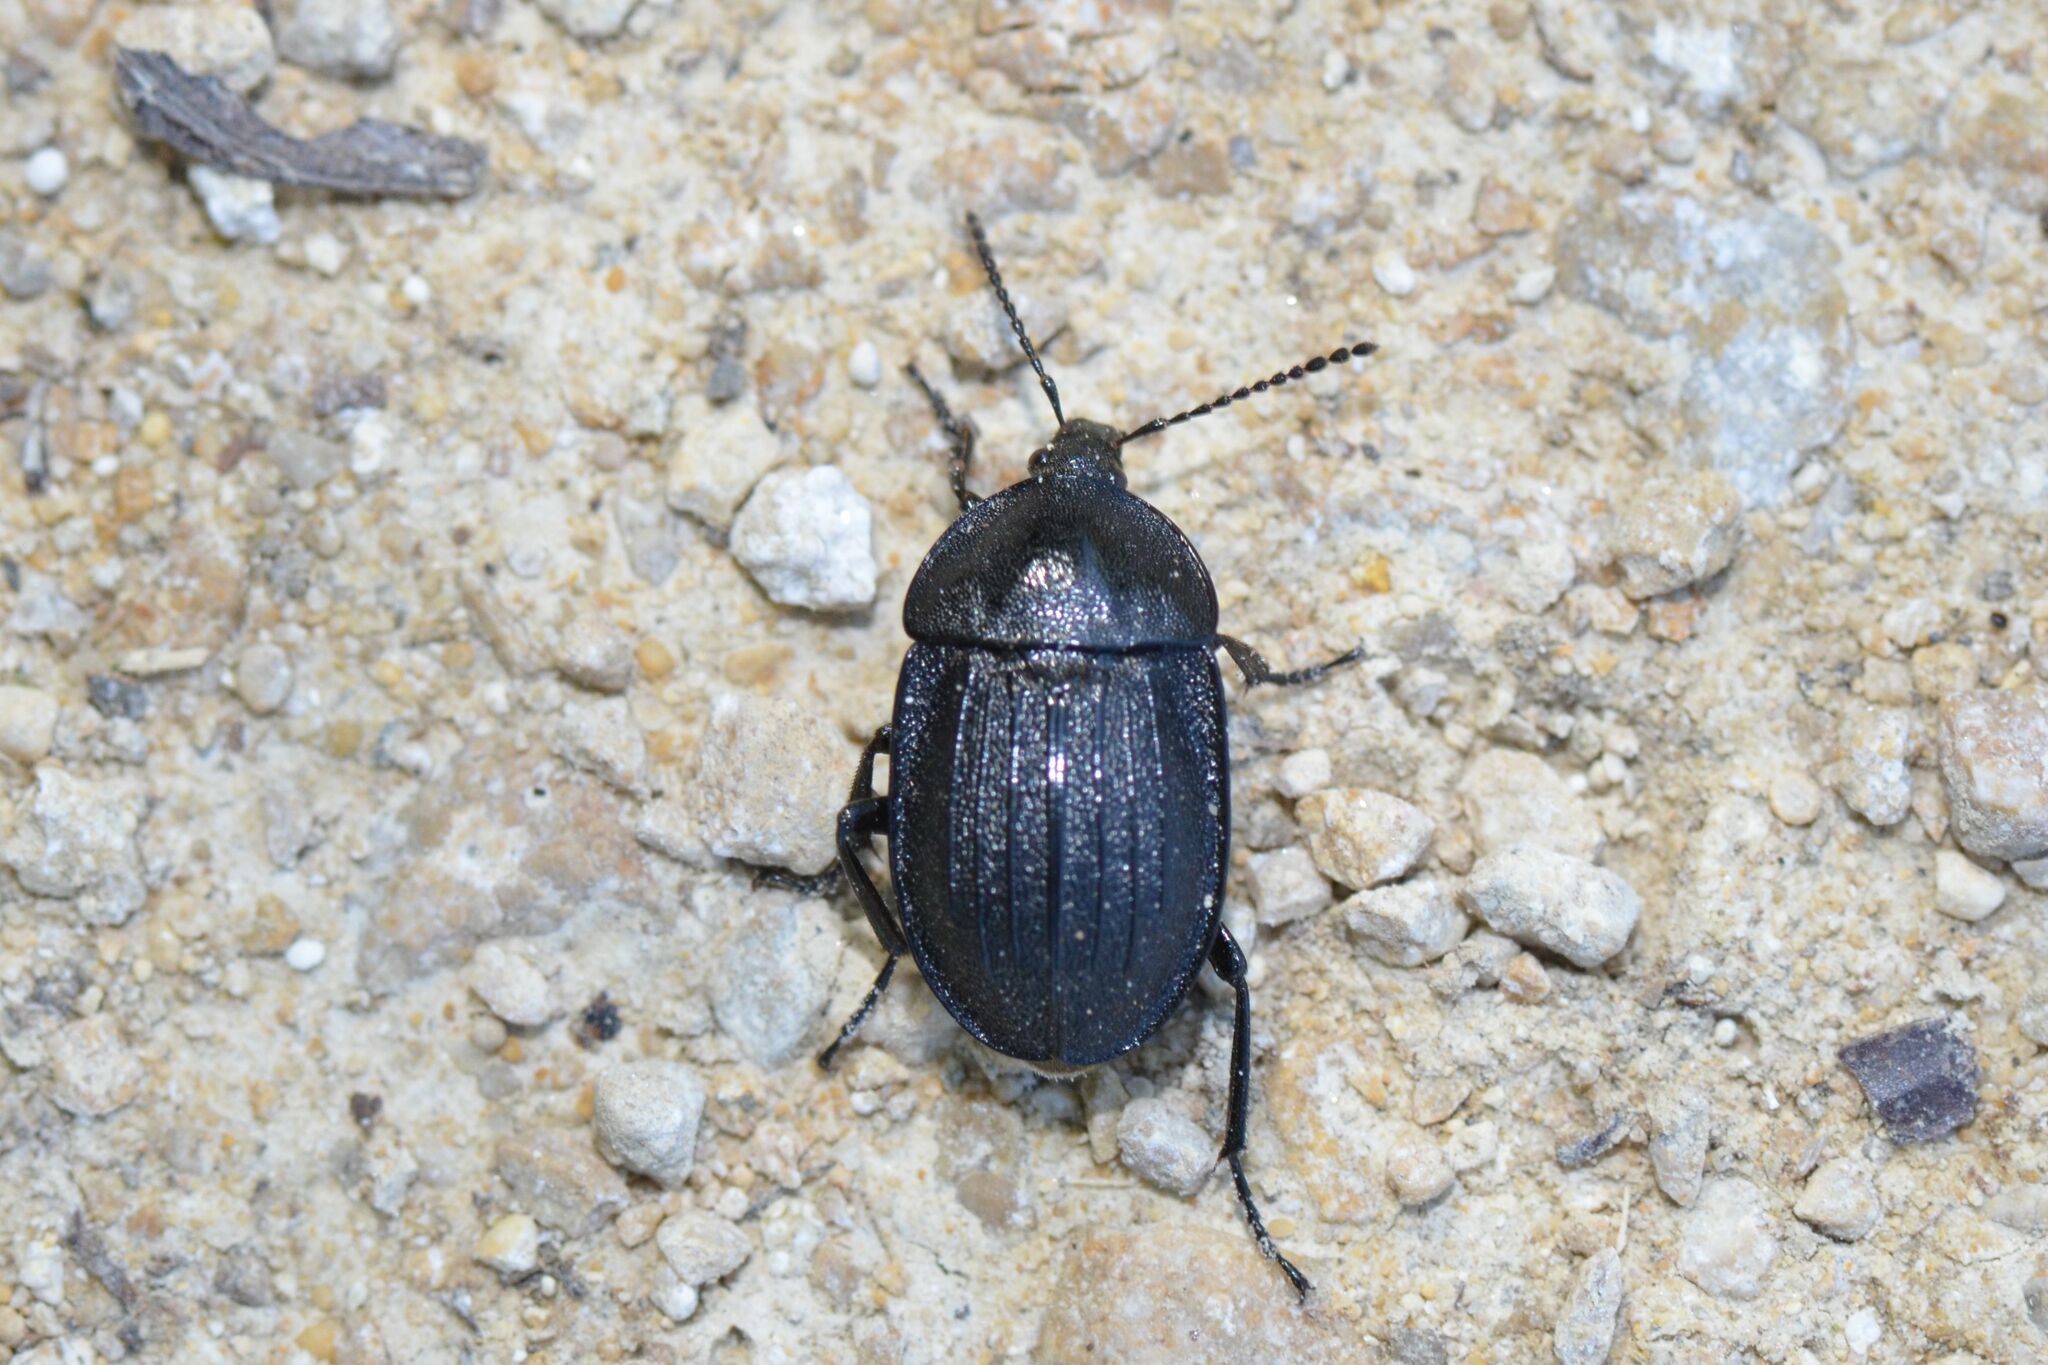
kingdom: Animalia
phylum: Arthropoda
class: Insecta
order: Coleoptera
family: Staphylinidae
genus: Silpha
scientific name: Silpha atrata
